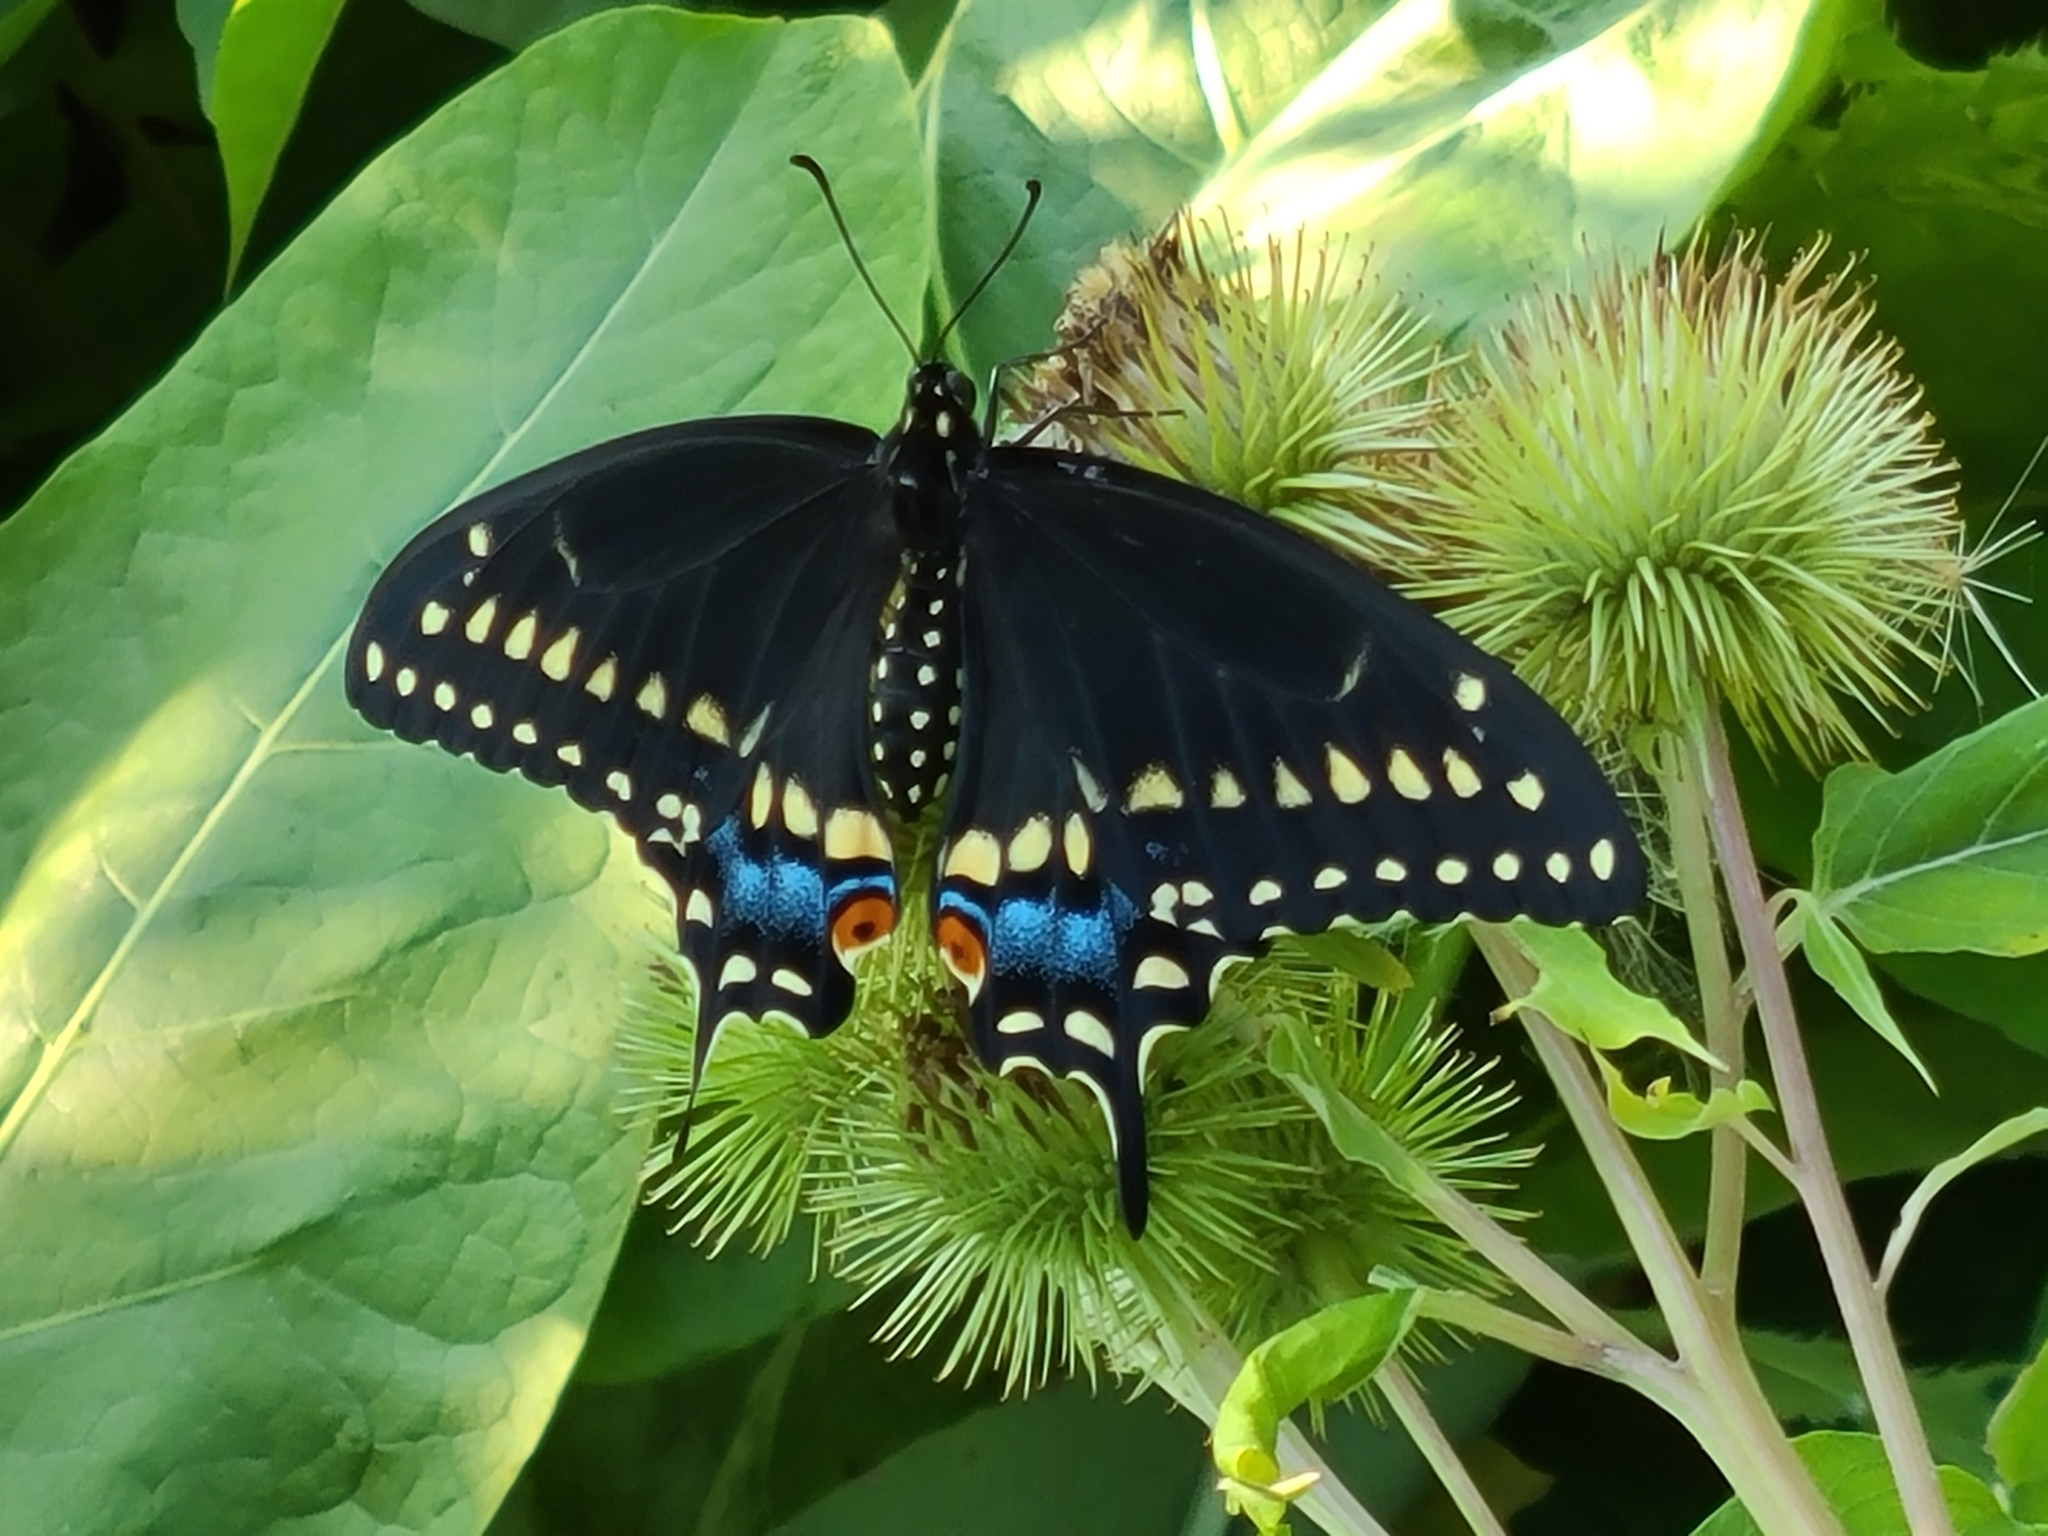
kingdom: Animalia
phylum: Arthropoda
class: Insecta
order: Lepidoptera
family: Papilionidae
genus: Papilio
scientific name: Papilio polyxenes
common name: Black swallowtail
